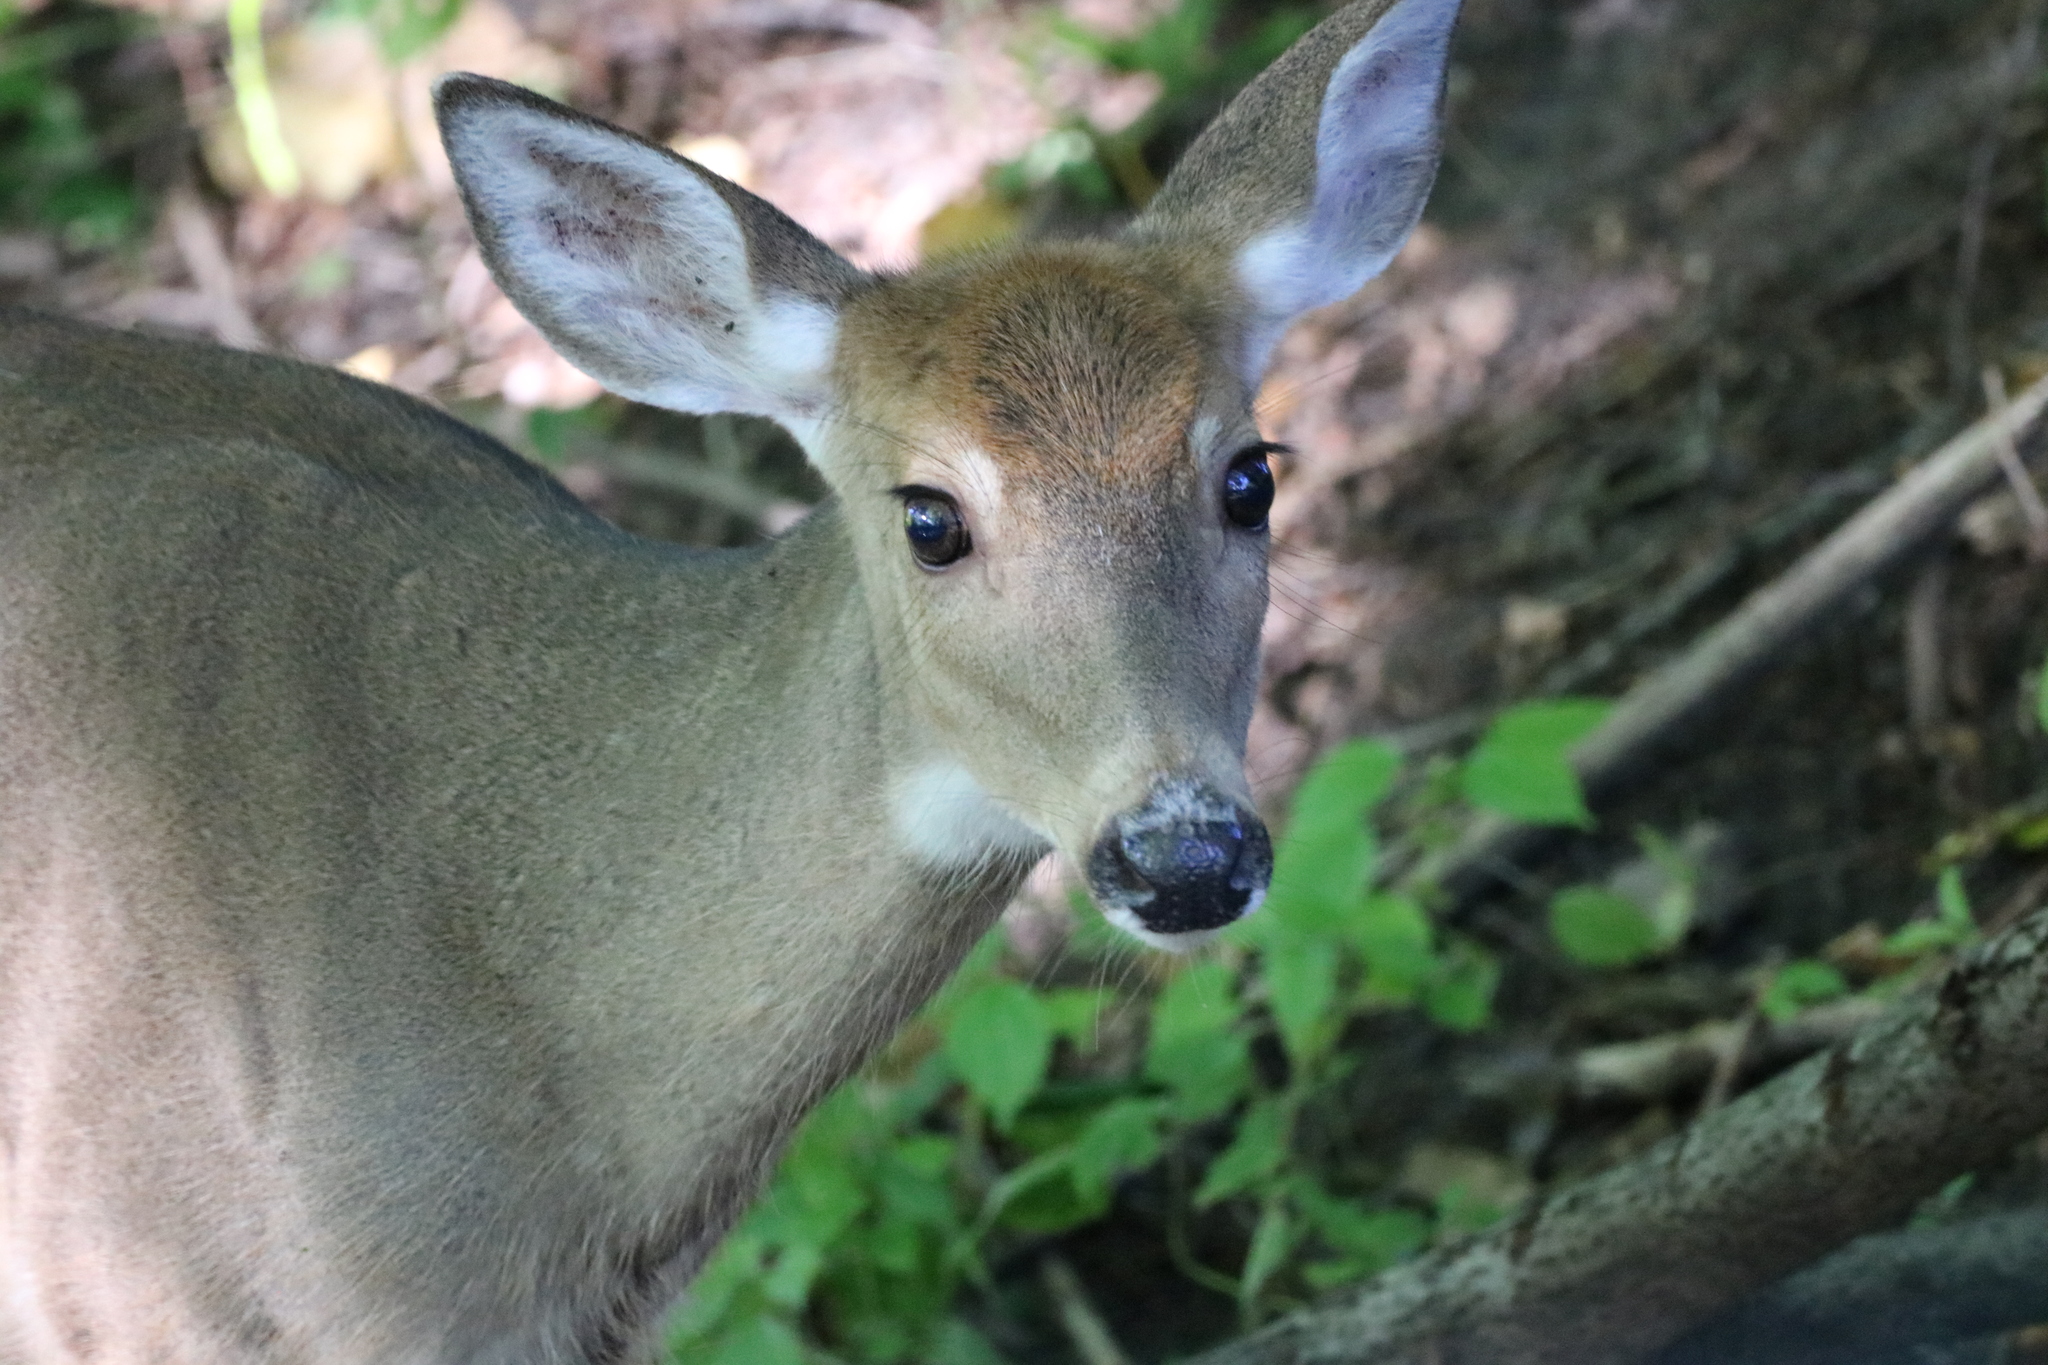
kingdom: Animalia
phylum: Chordata
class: Mammalia
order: Artiodactyla
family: Cervidae
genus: Odocoileus
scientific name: Odocoileus virginianus
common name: White-tailed deer
